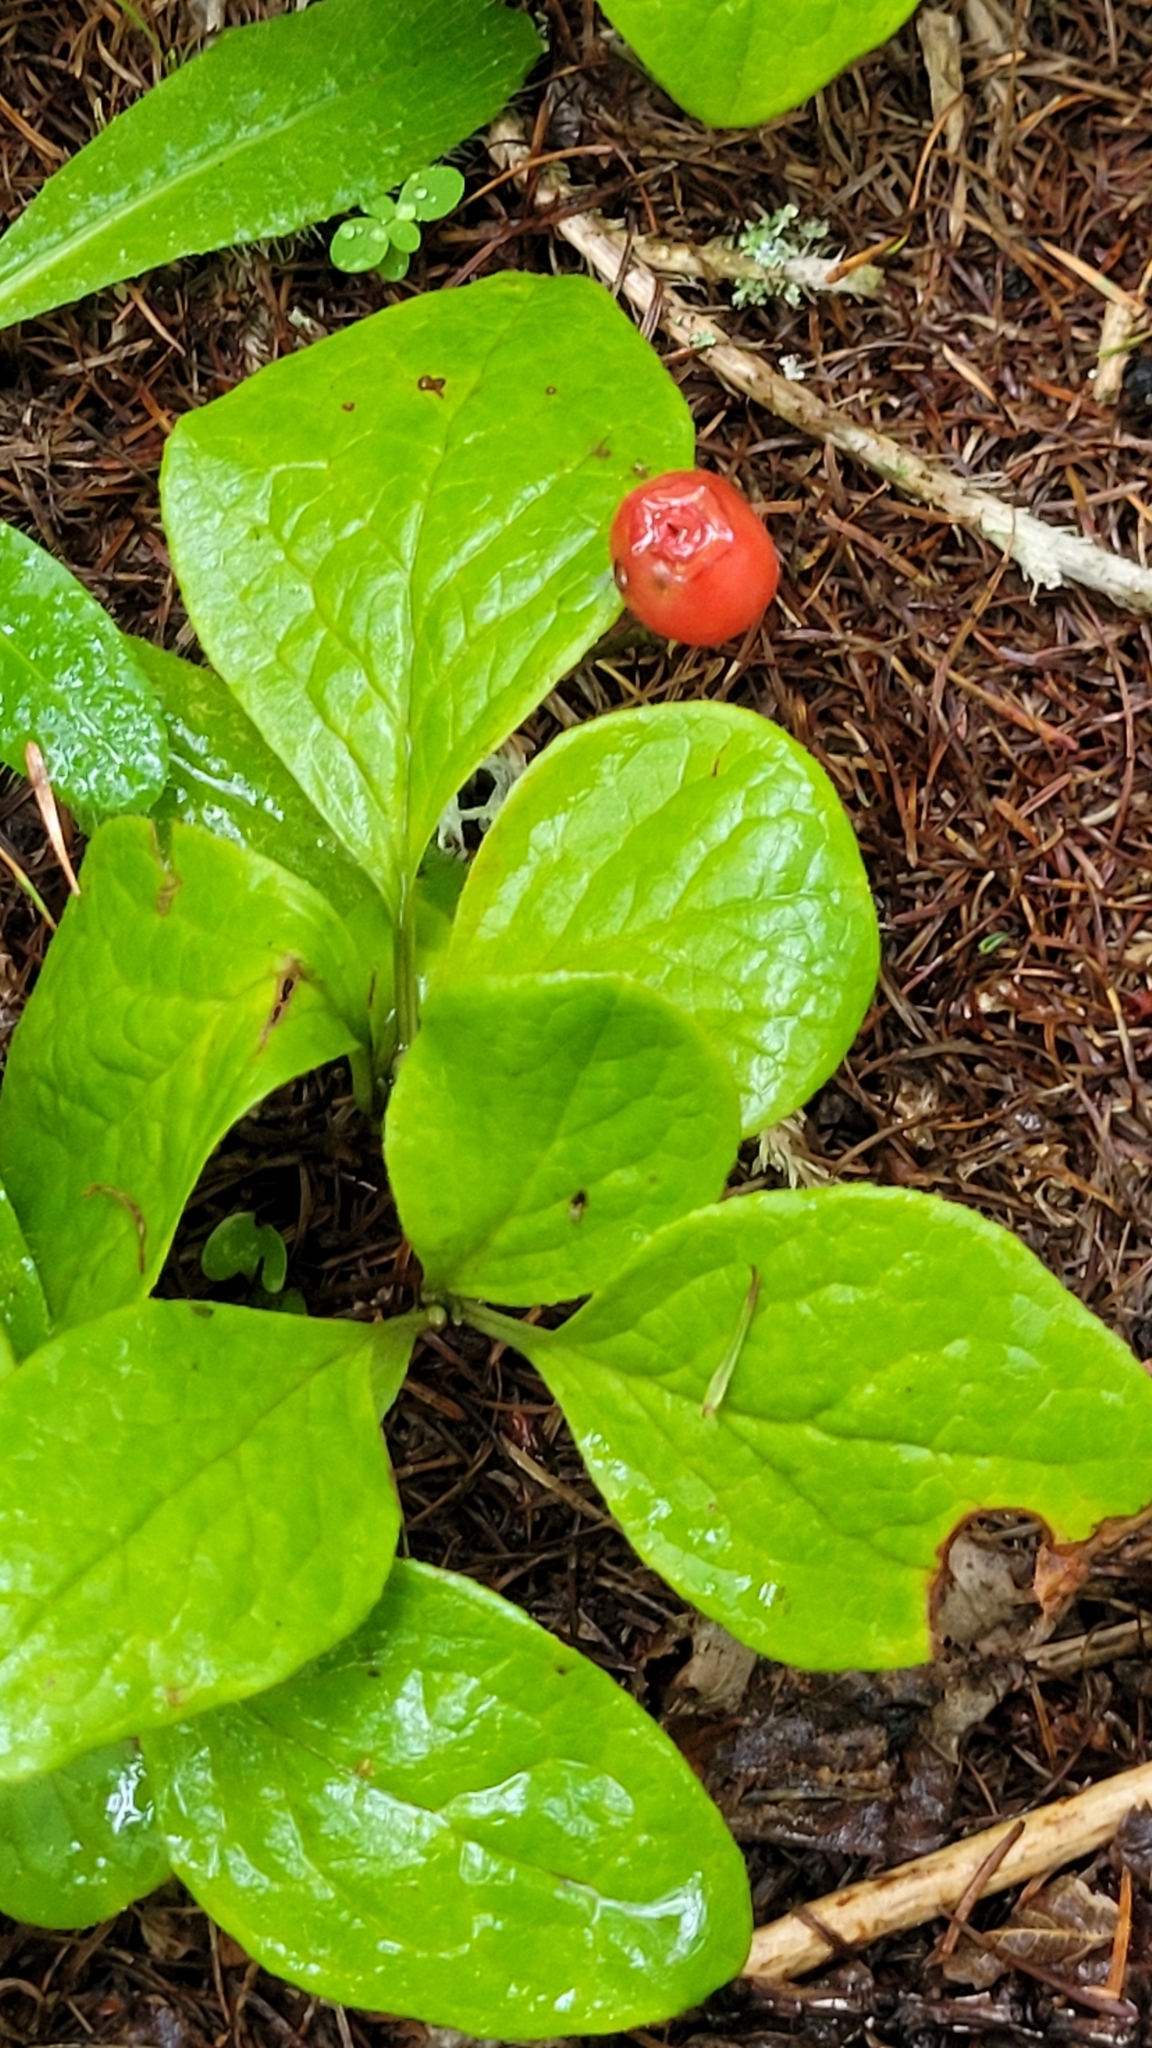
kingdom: Plantae
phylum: Tracheophyta
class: Magnoliopsida
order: Ericales
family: Ericaceae
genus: Vaccinium
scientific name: Vaccinium praestans
